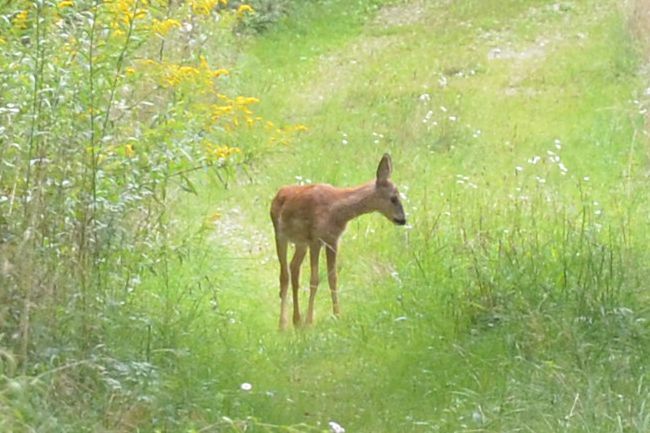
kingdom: Animalia
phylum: Chordata
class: Mammalia
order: Artiodactyla
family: Cervidae
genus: Capreolus
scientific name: Capreolus capreolus
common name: Western roe deer
